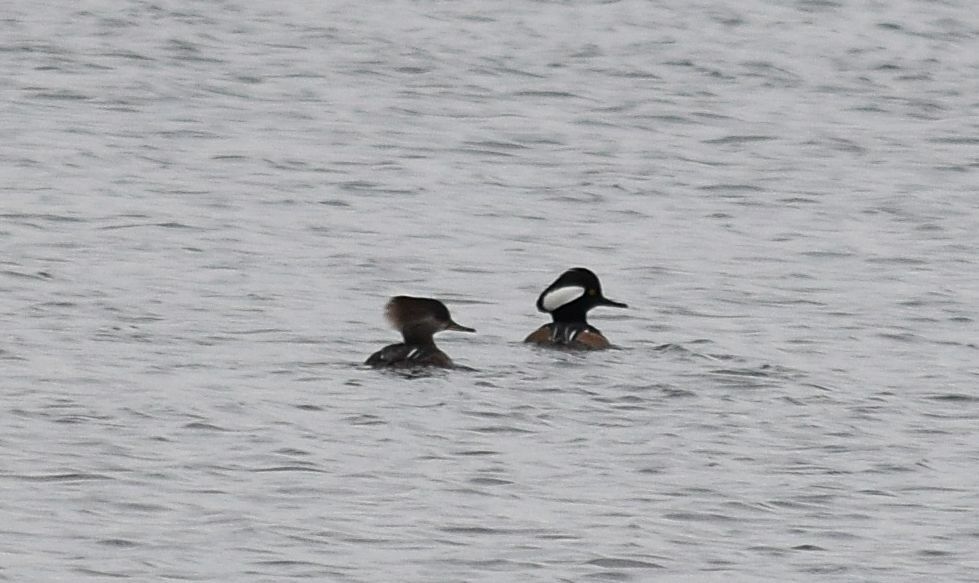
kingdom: Animalia
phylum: Chordata
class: Aves
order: Anseriformes
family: Anatidae
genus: Lophodytes
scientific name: Lophodytes cucullatus
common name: Hooded merganser
